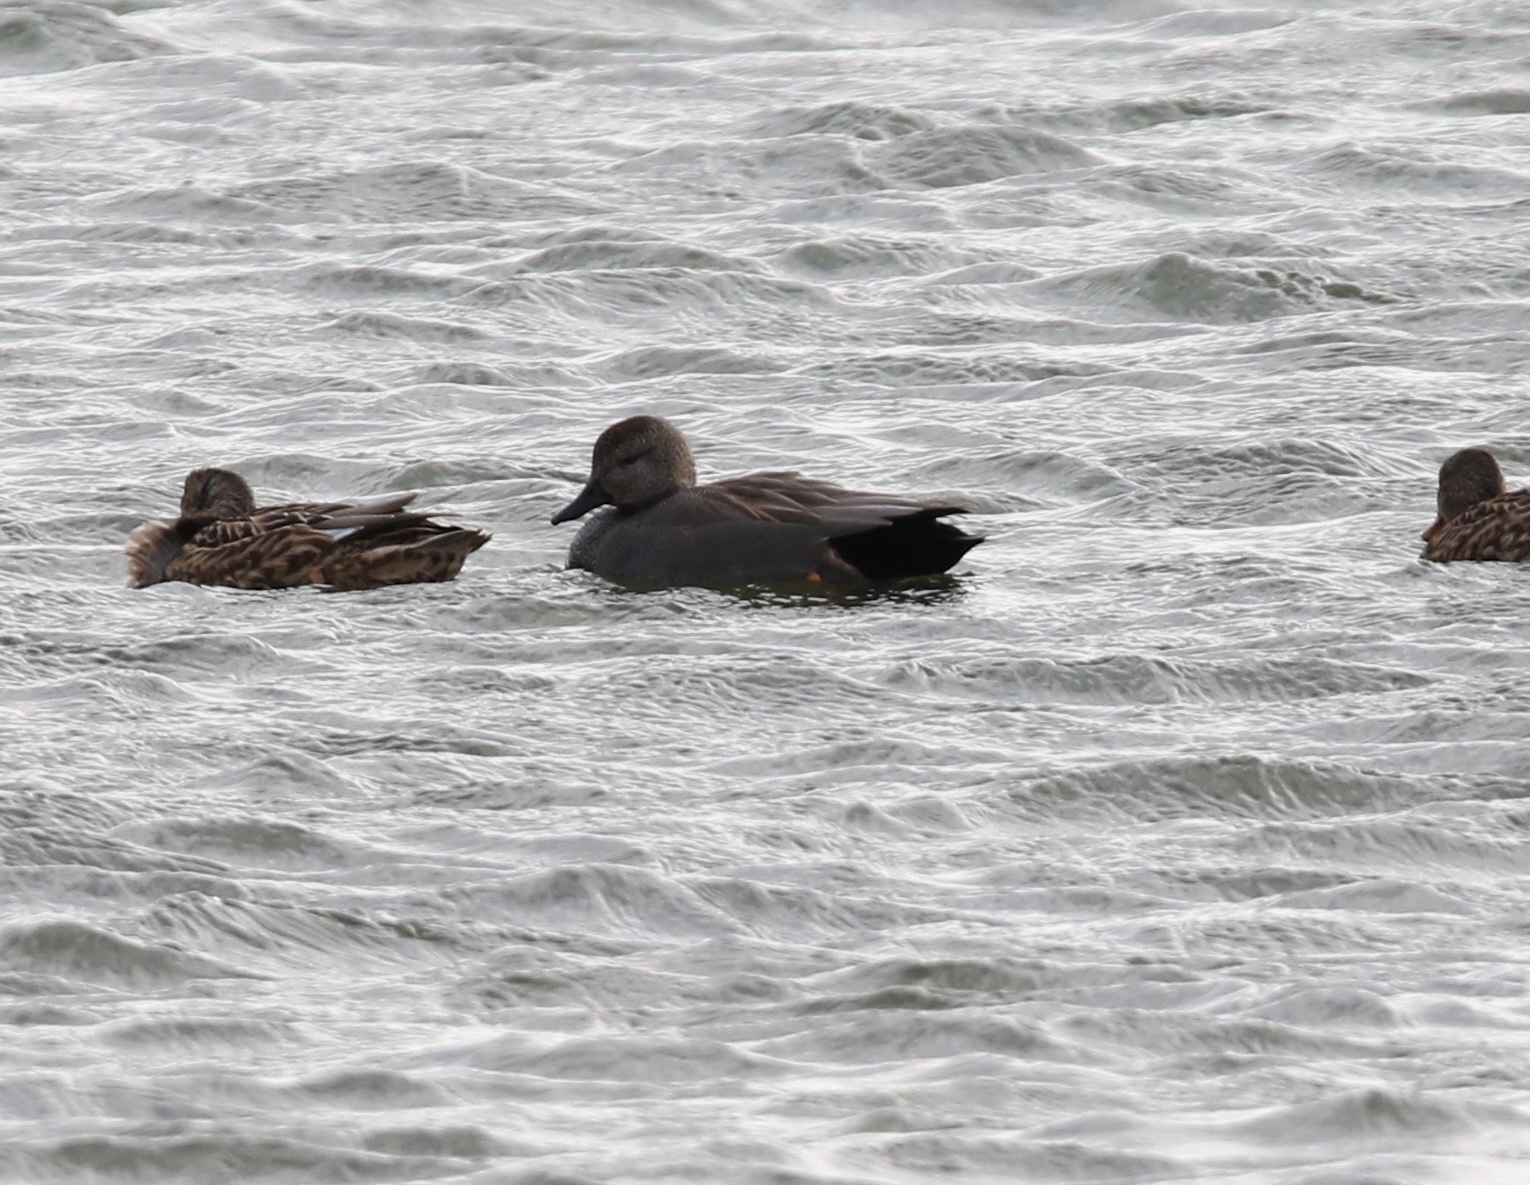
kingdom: Animalia
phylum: Chordata
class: Aves
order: Anseriformes
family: Anatidae
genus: Mareca
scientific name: Mareca strepera
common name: Gadwall
